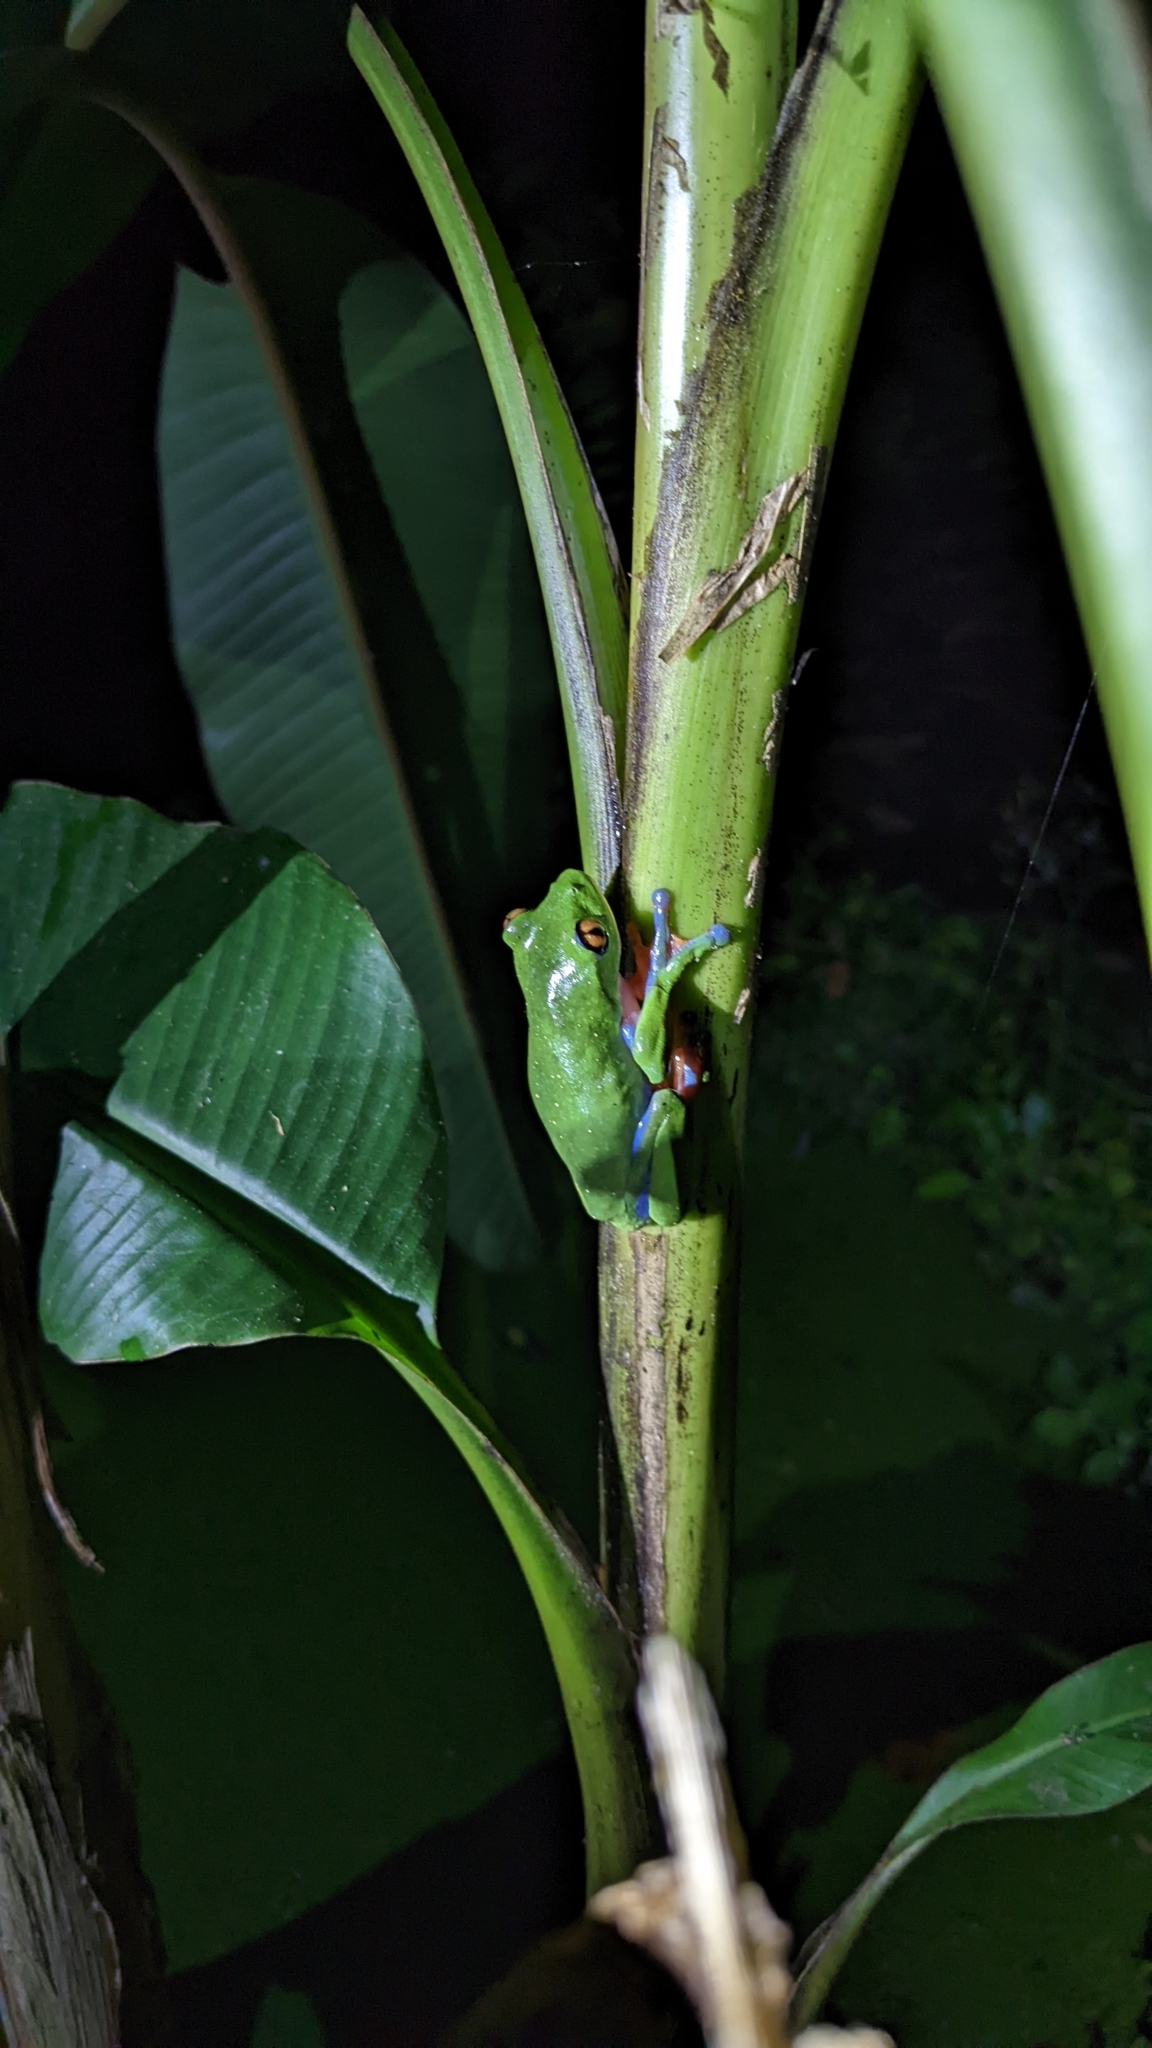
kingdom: Animalia
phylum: Chordata
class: Amphibia
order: Anura
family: Phyllomedusidae
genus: Agalychnis
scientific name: Agalychnis annae
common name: Blue-sided treefrog
